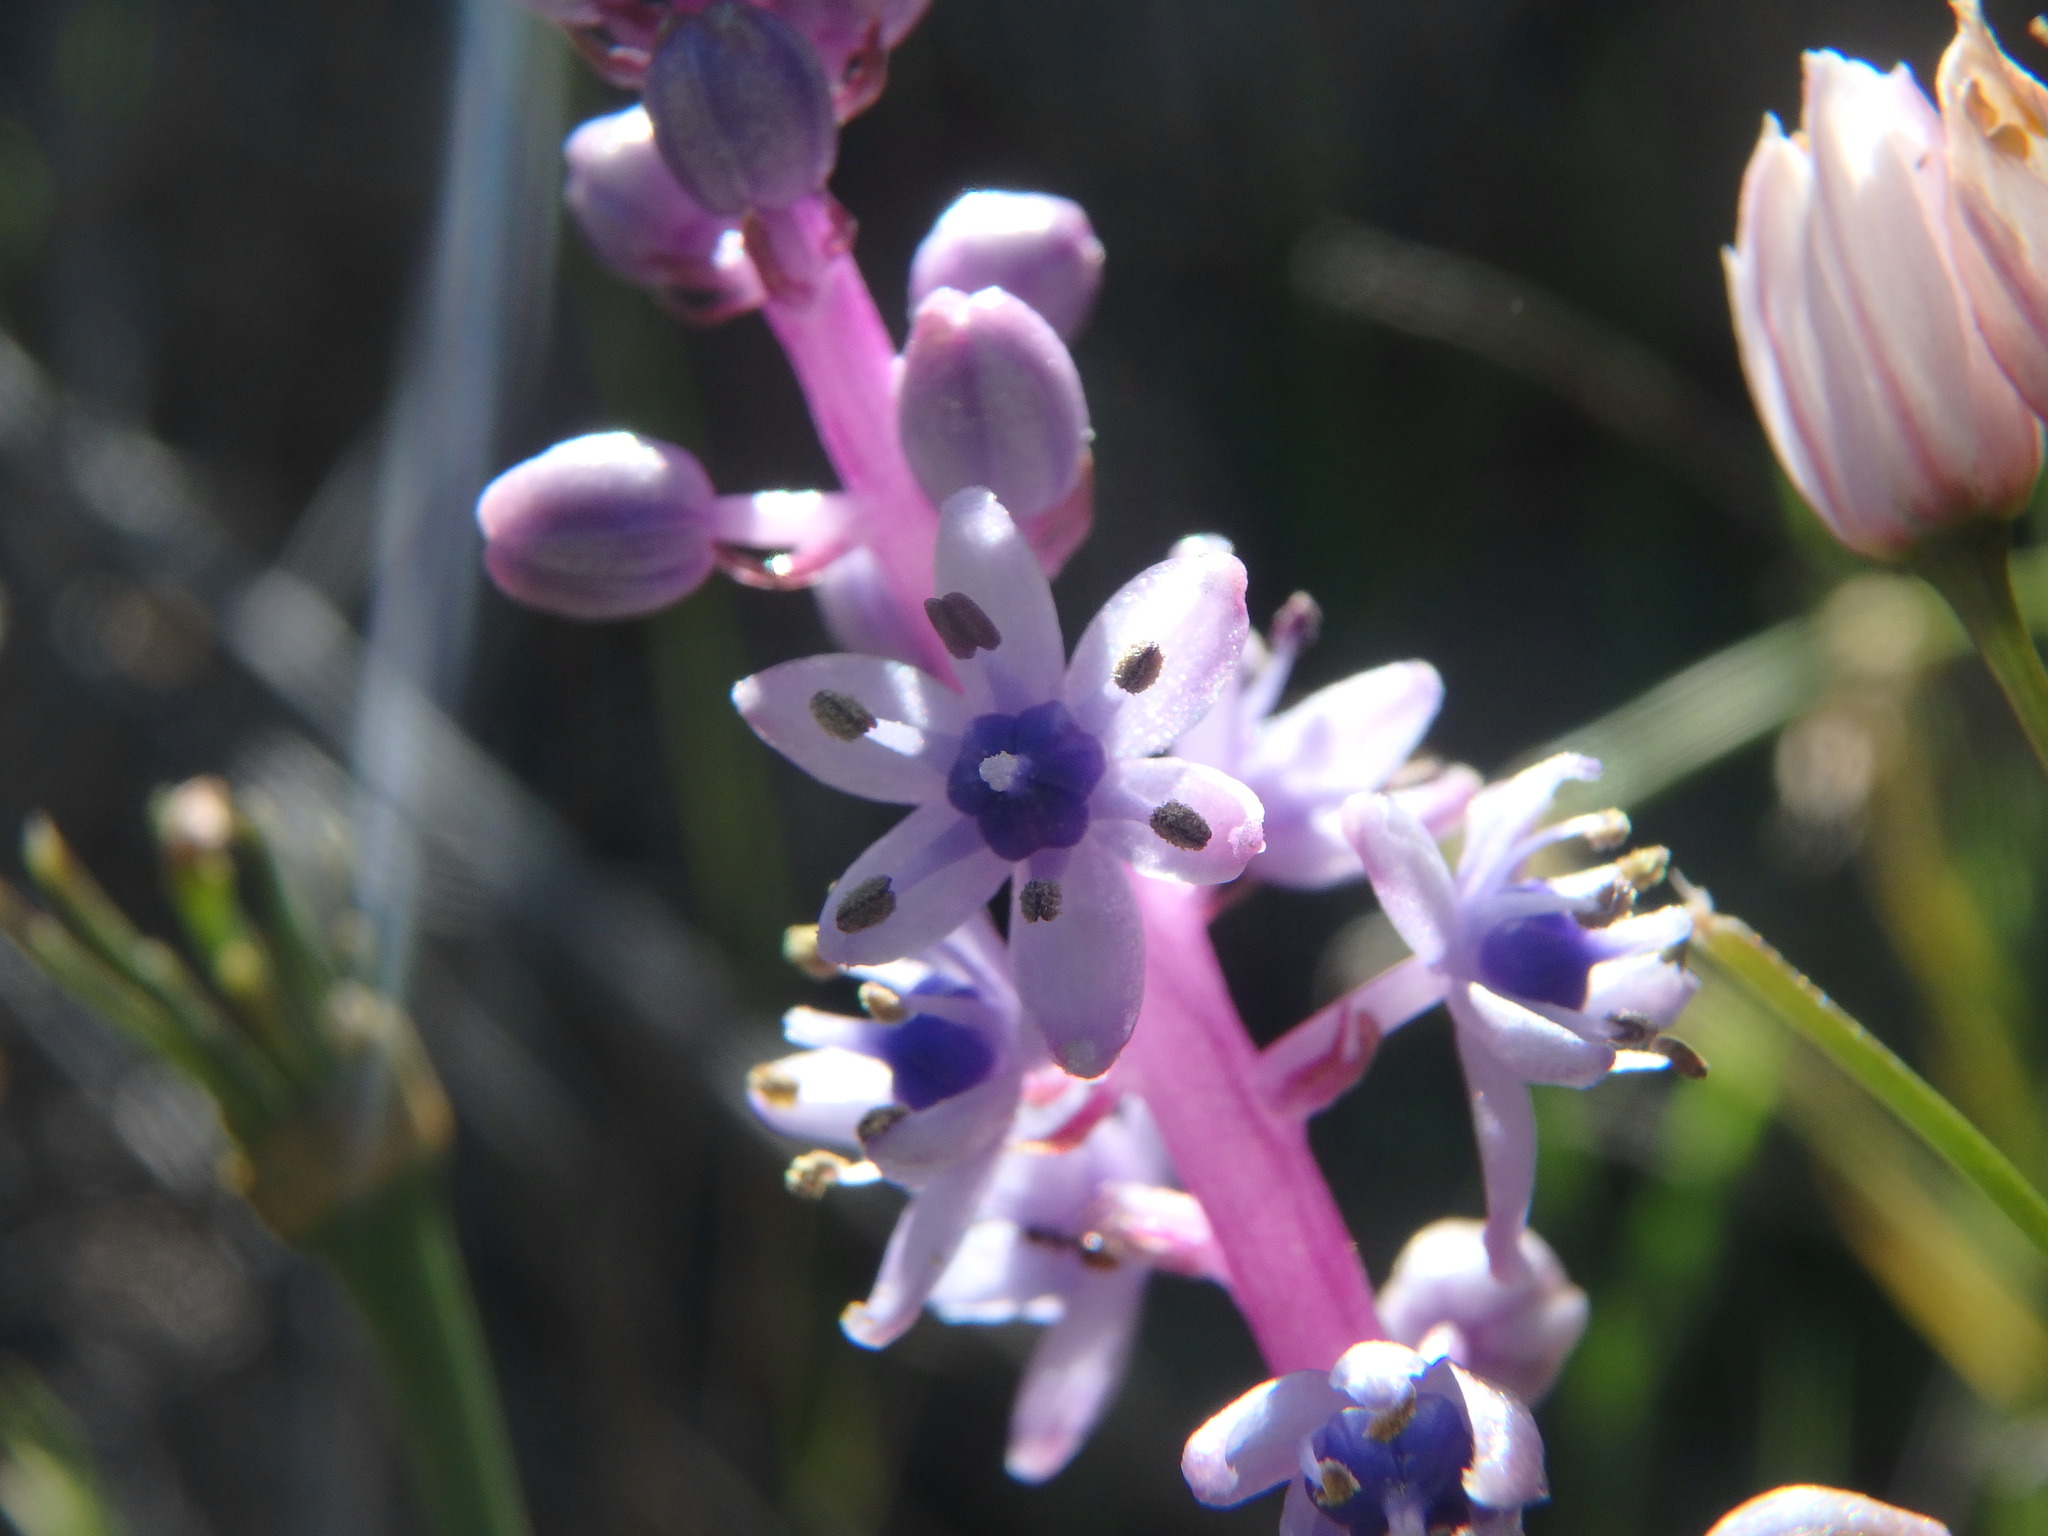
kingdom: Plantae
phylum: Tracheophyta
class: Liliopsida
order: Asparagales
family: Asparagaceae
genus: Scilla
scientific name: Scilla haemorrhoidalis
